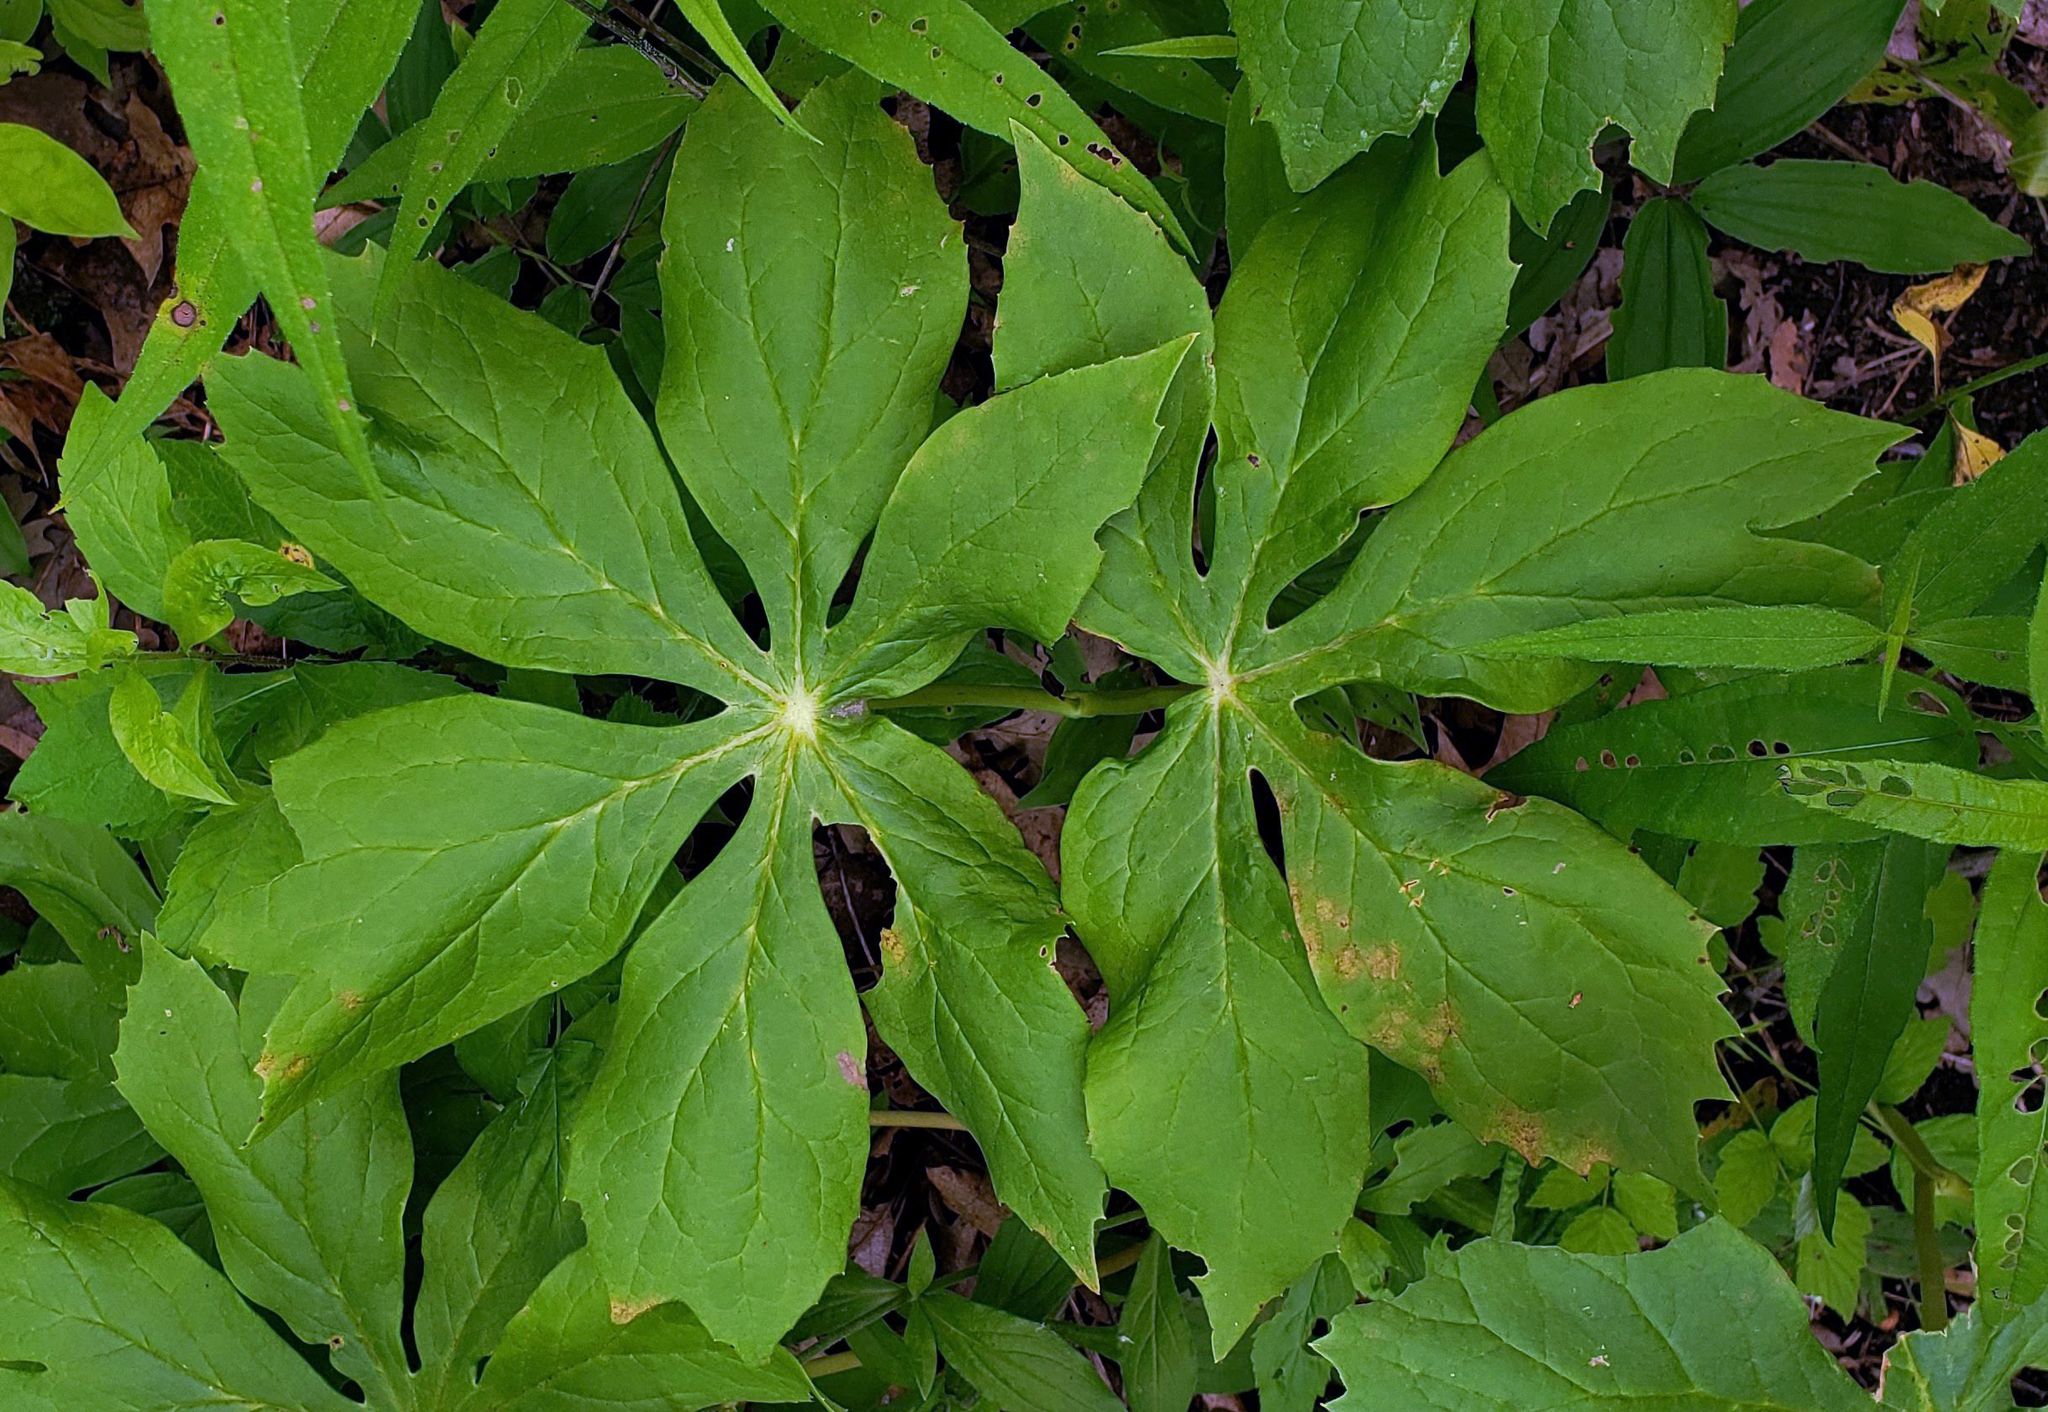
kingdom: Plantae
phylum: Tracheophyta
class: Magnoliopsida
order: Ranunculales
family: Berberidaceae
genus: Podophyllum
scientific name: Podophyllum peltatum
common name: Wild mandrake
